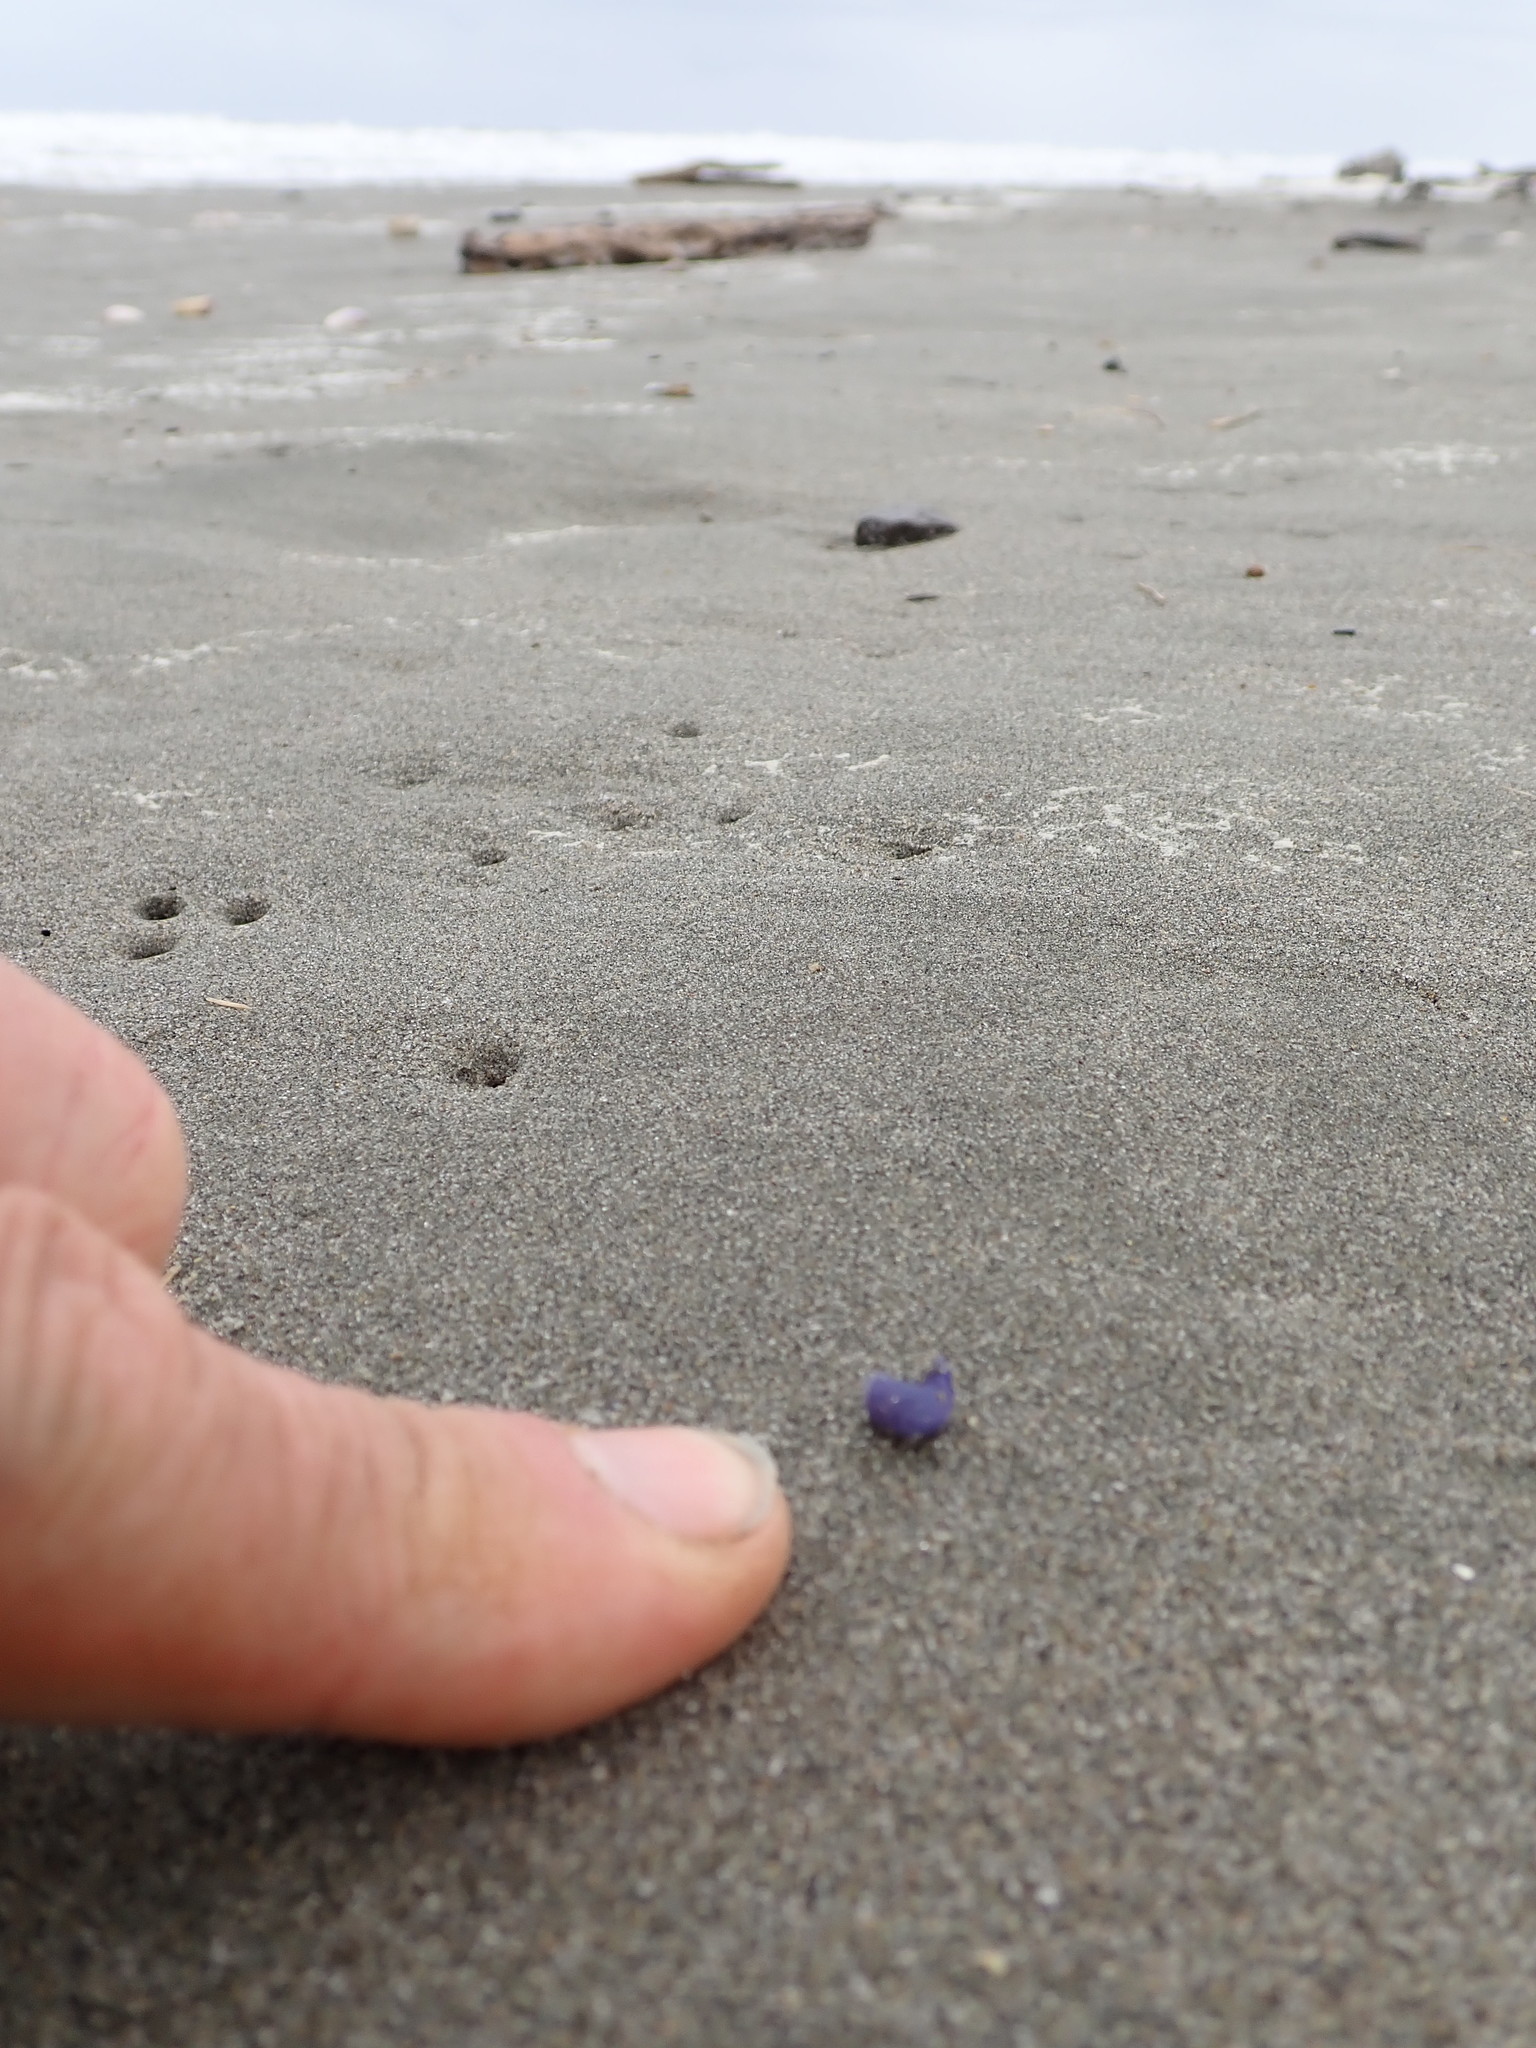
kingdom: Animalia
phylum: Mollusca
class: Gastropoda
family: Epitoniidae
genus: Janthina
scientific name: Janthina exigua
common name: Dwarf janthina
